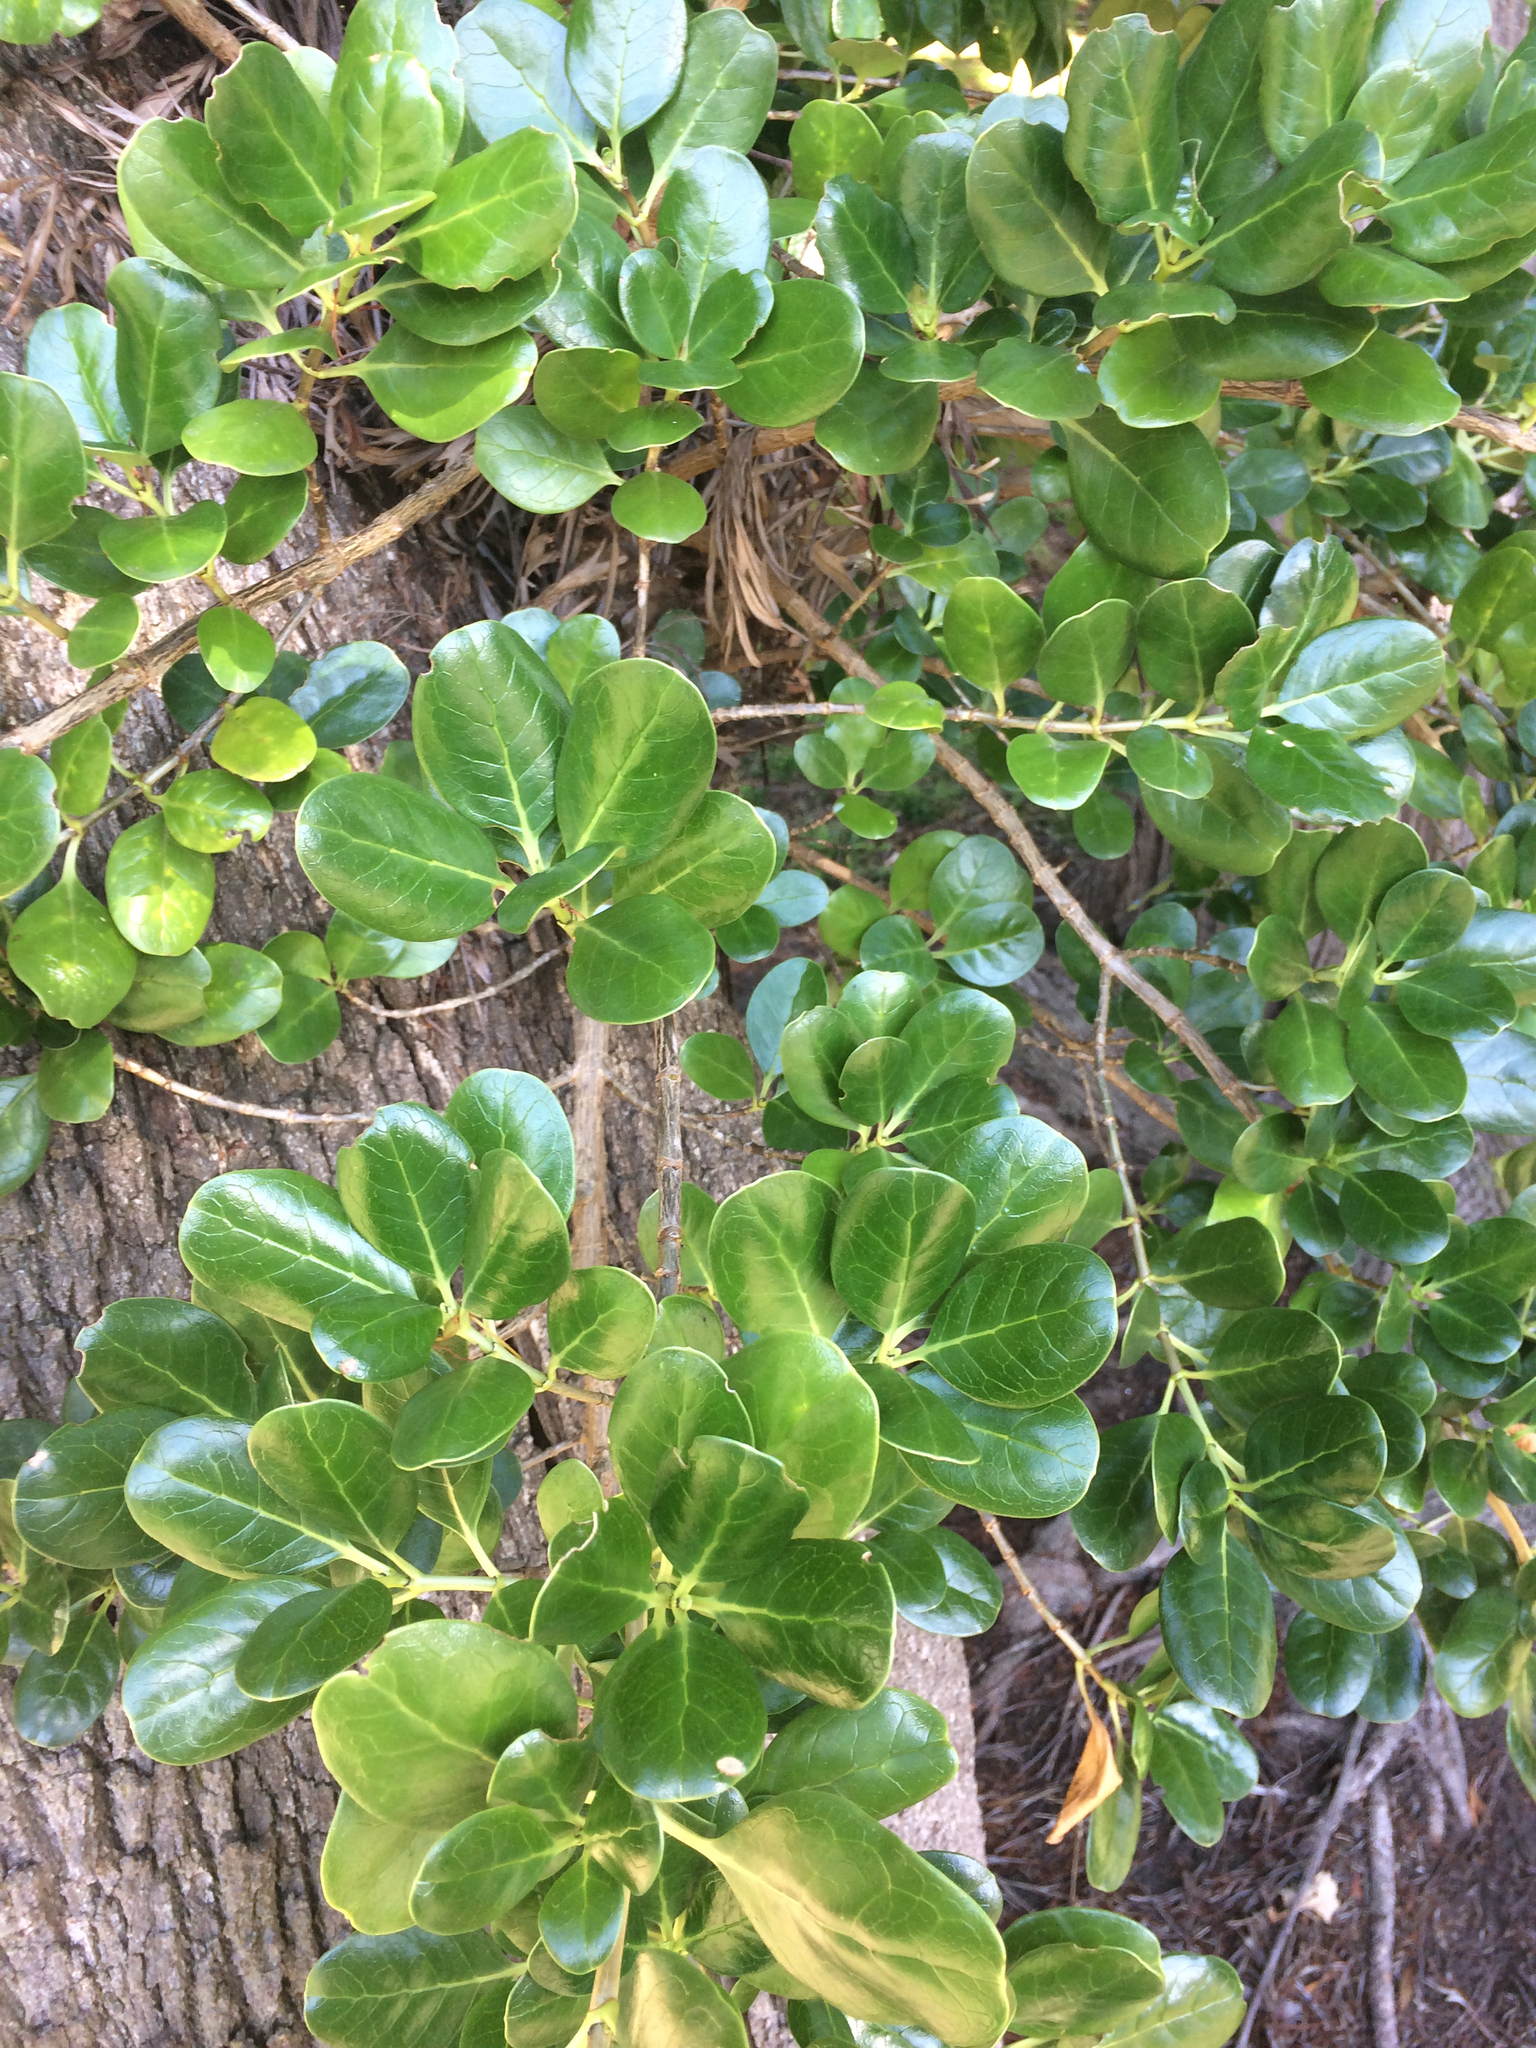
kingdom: Plantae
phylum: Tracheophyta
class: Magnoliopsida
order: Gentianales
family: Rubiaceae
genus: Coprosma
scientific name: Coprosma repens
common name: Tree bedstraw
